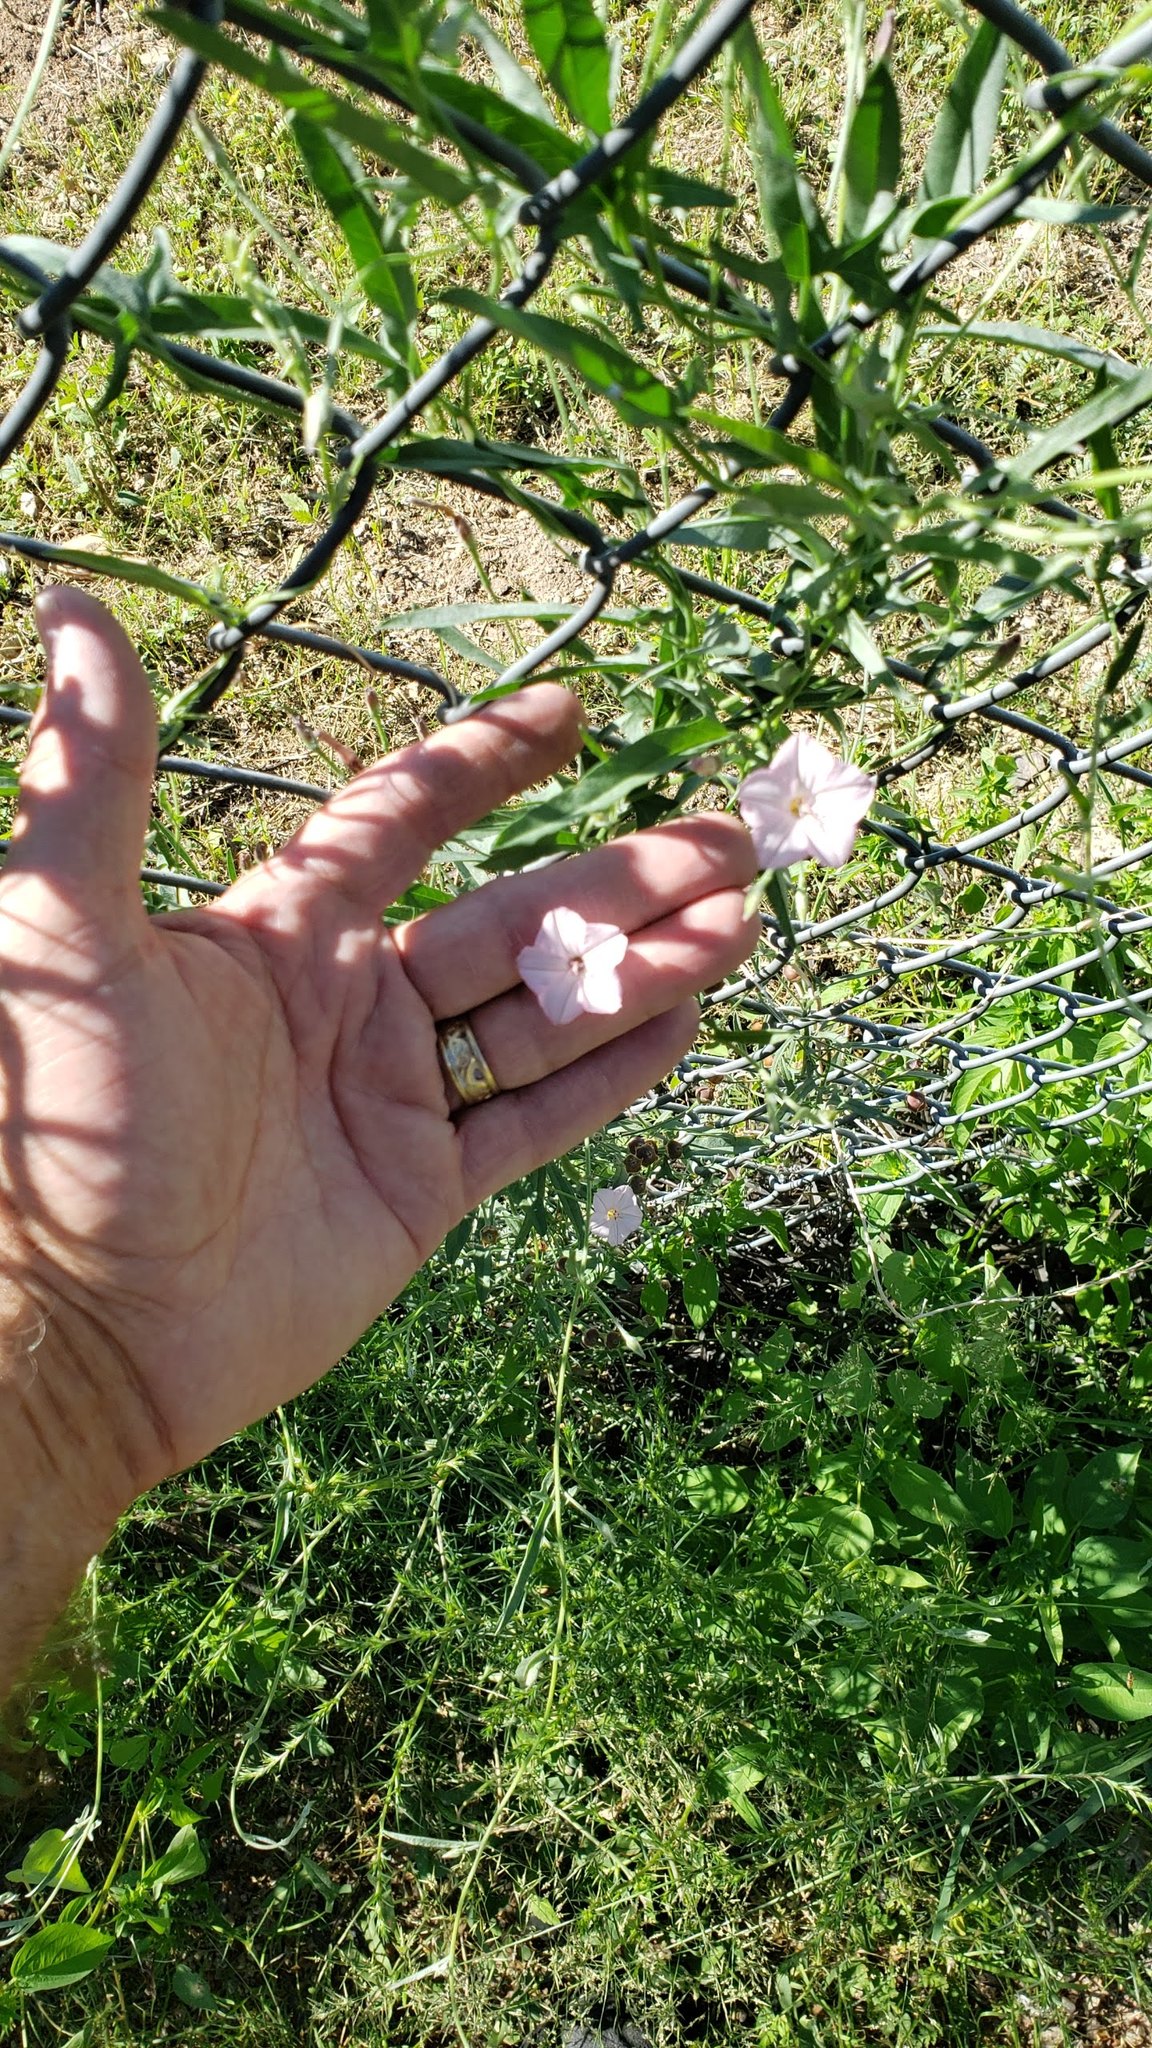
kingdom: Plantae
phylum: Tracheophyta
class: Magnoliopsida
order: Solanales
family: Convolvulaceae
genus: Convolvulus
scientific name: Convolvulus equitans
